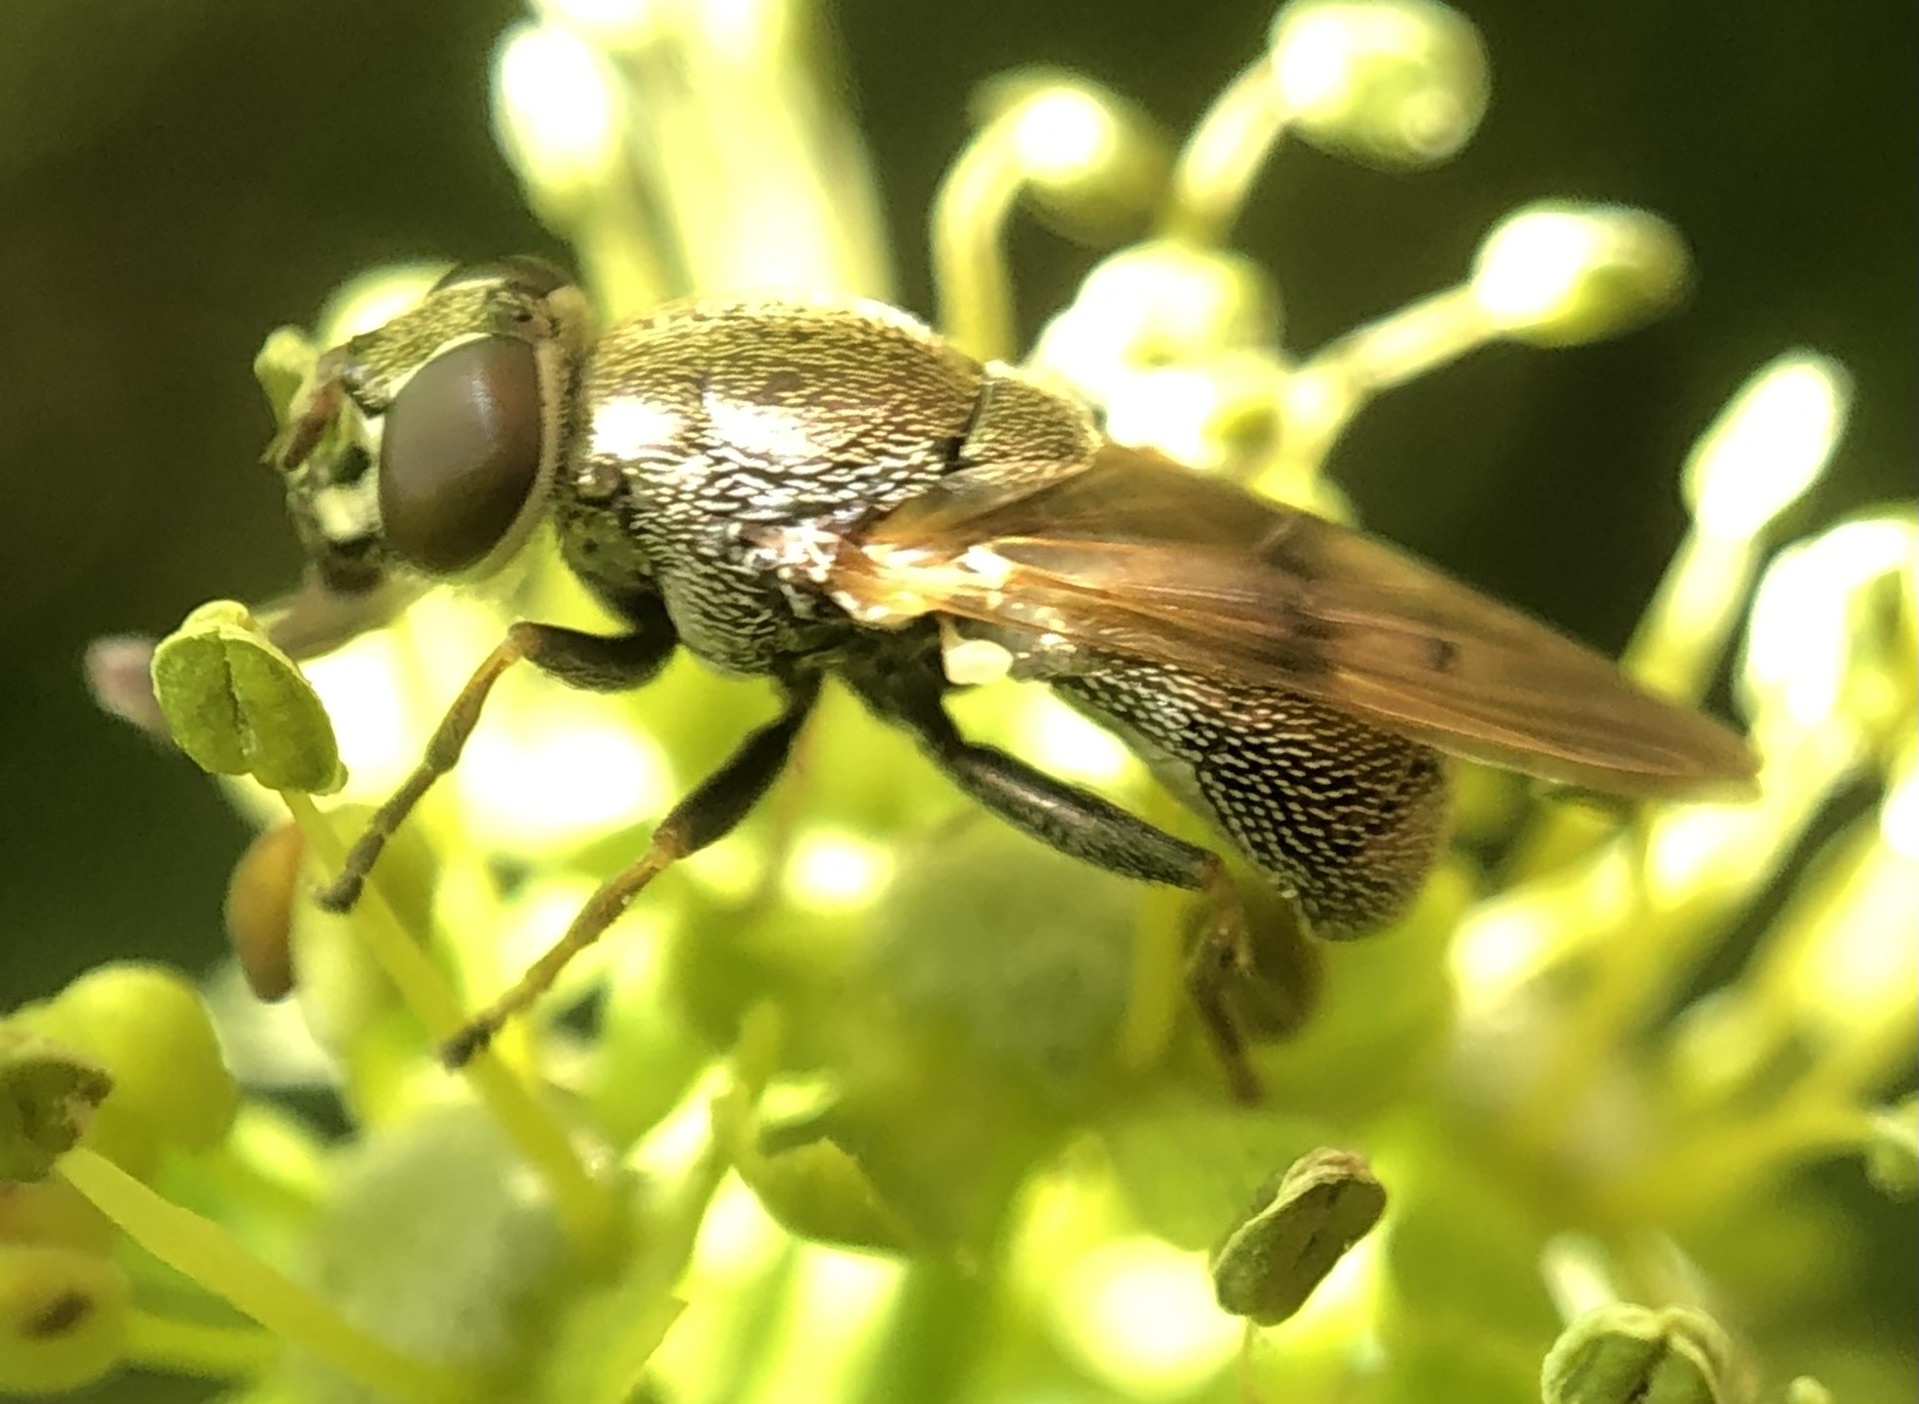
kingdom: Animalia
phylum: Arthropoda
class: Insecta
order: Diptera
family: Syrphidae
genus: Myolepta
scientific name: Myolepta strigilata
